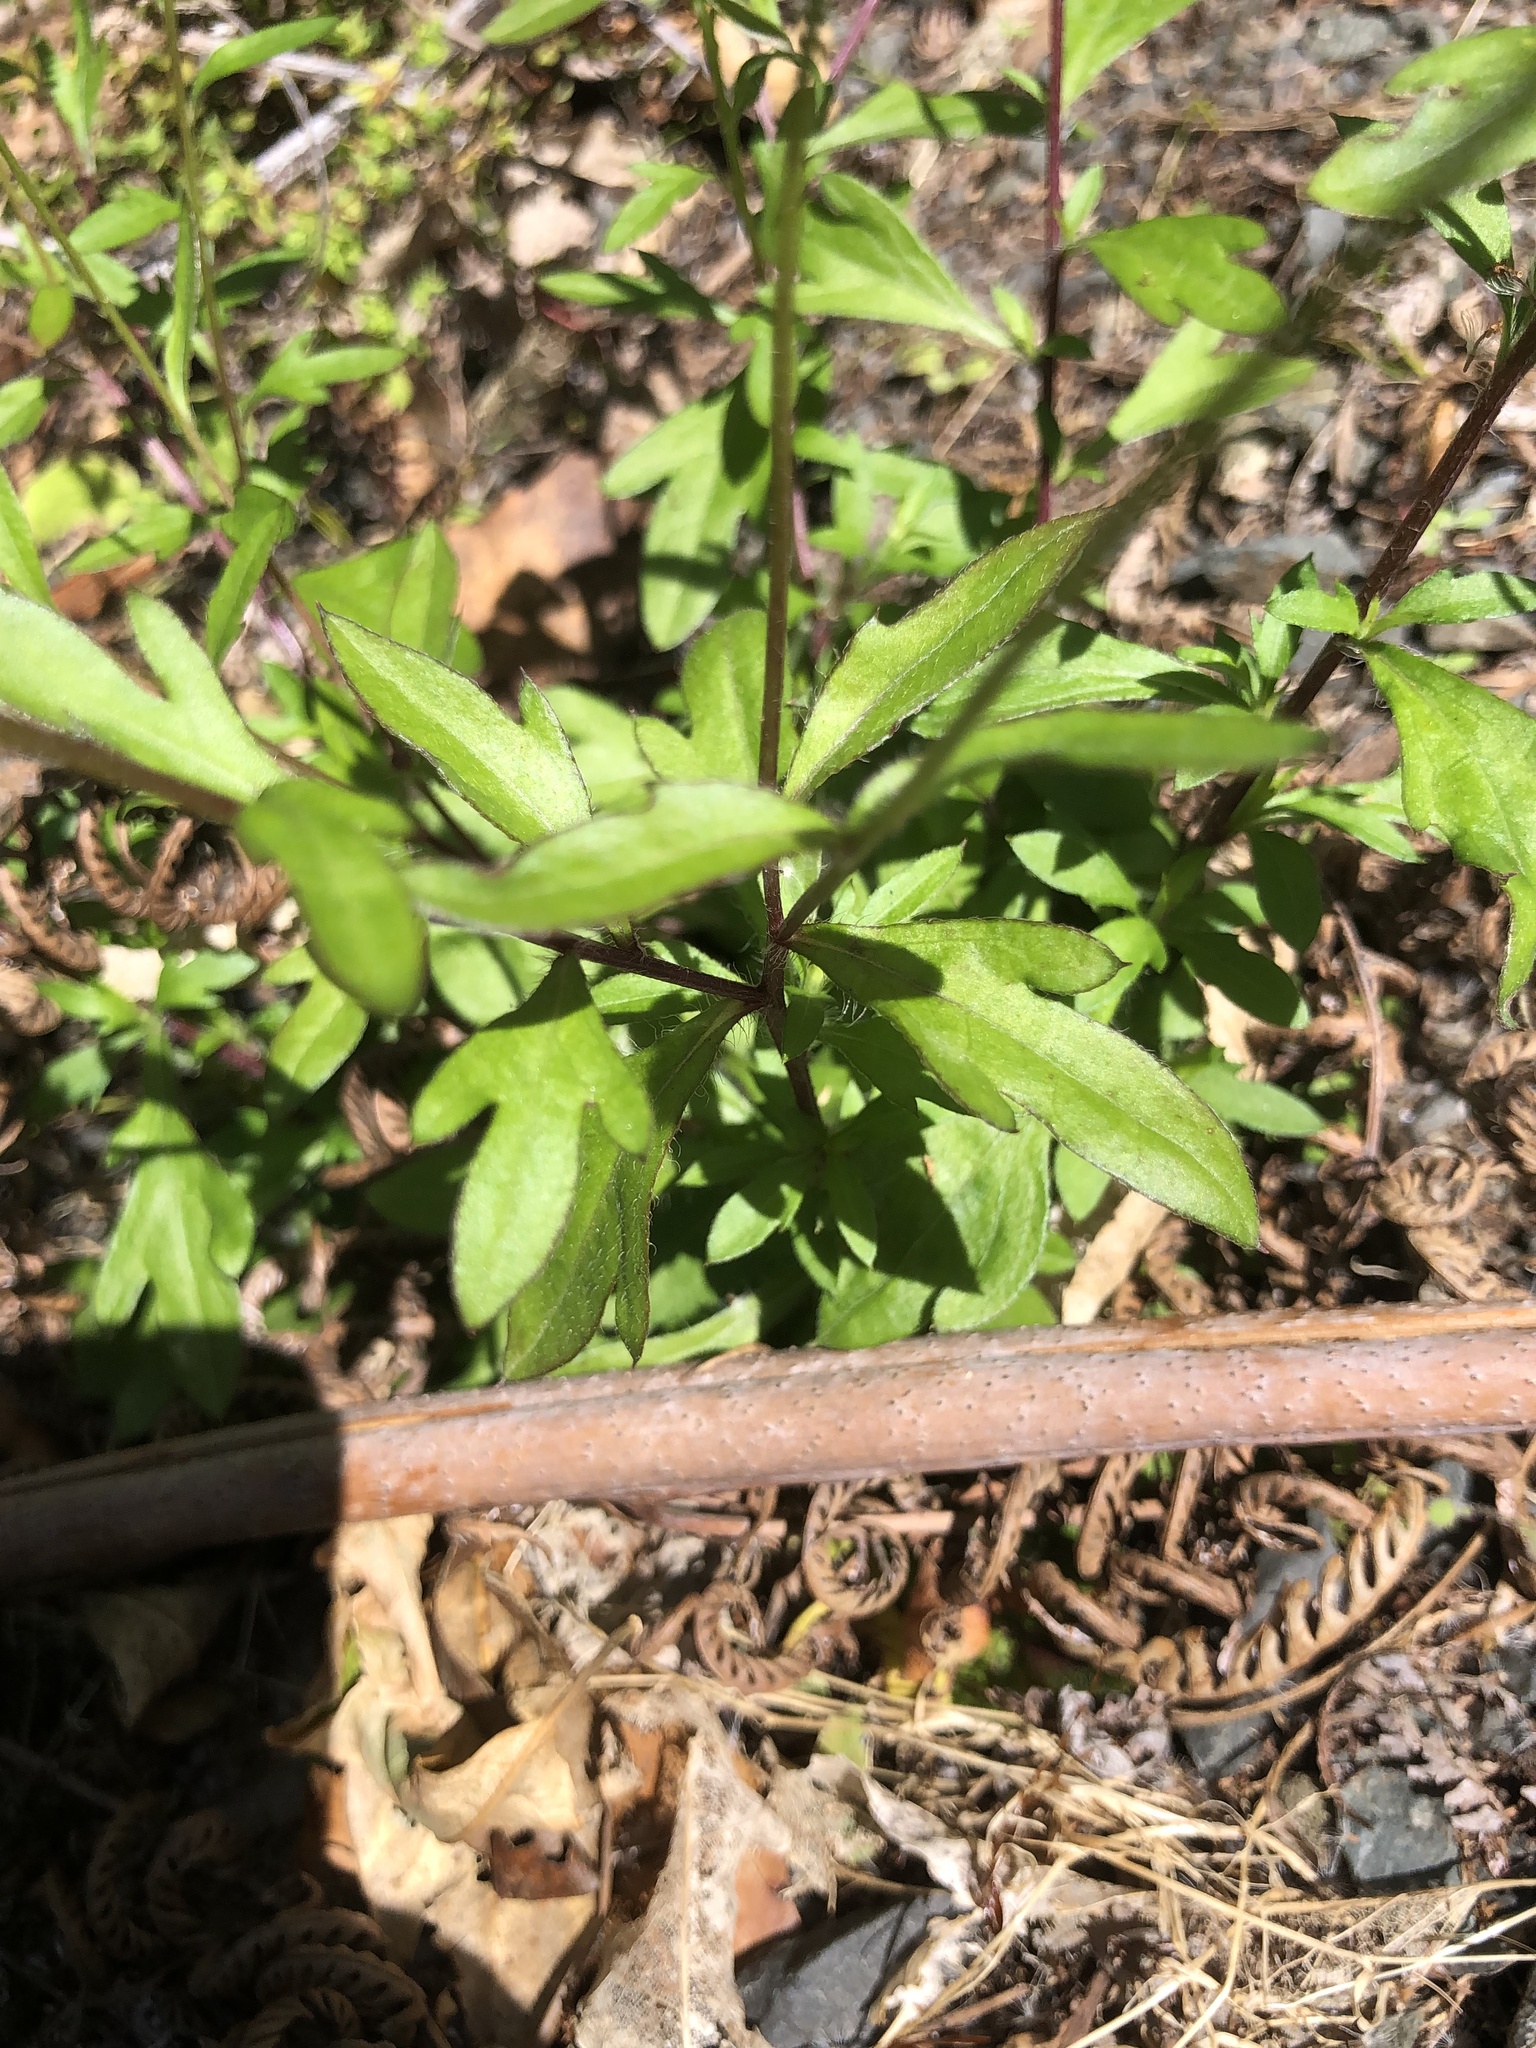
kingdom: Plantae
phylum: Tracheophyta
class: Magnoliopsida
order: Asterales
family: Asteraceae
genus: Erigeron
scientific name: Erigeron karvinskianus
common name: Mexican fleabane
